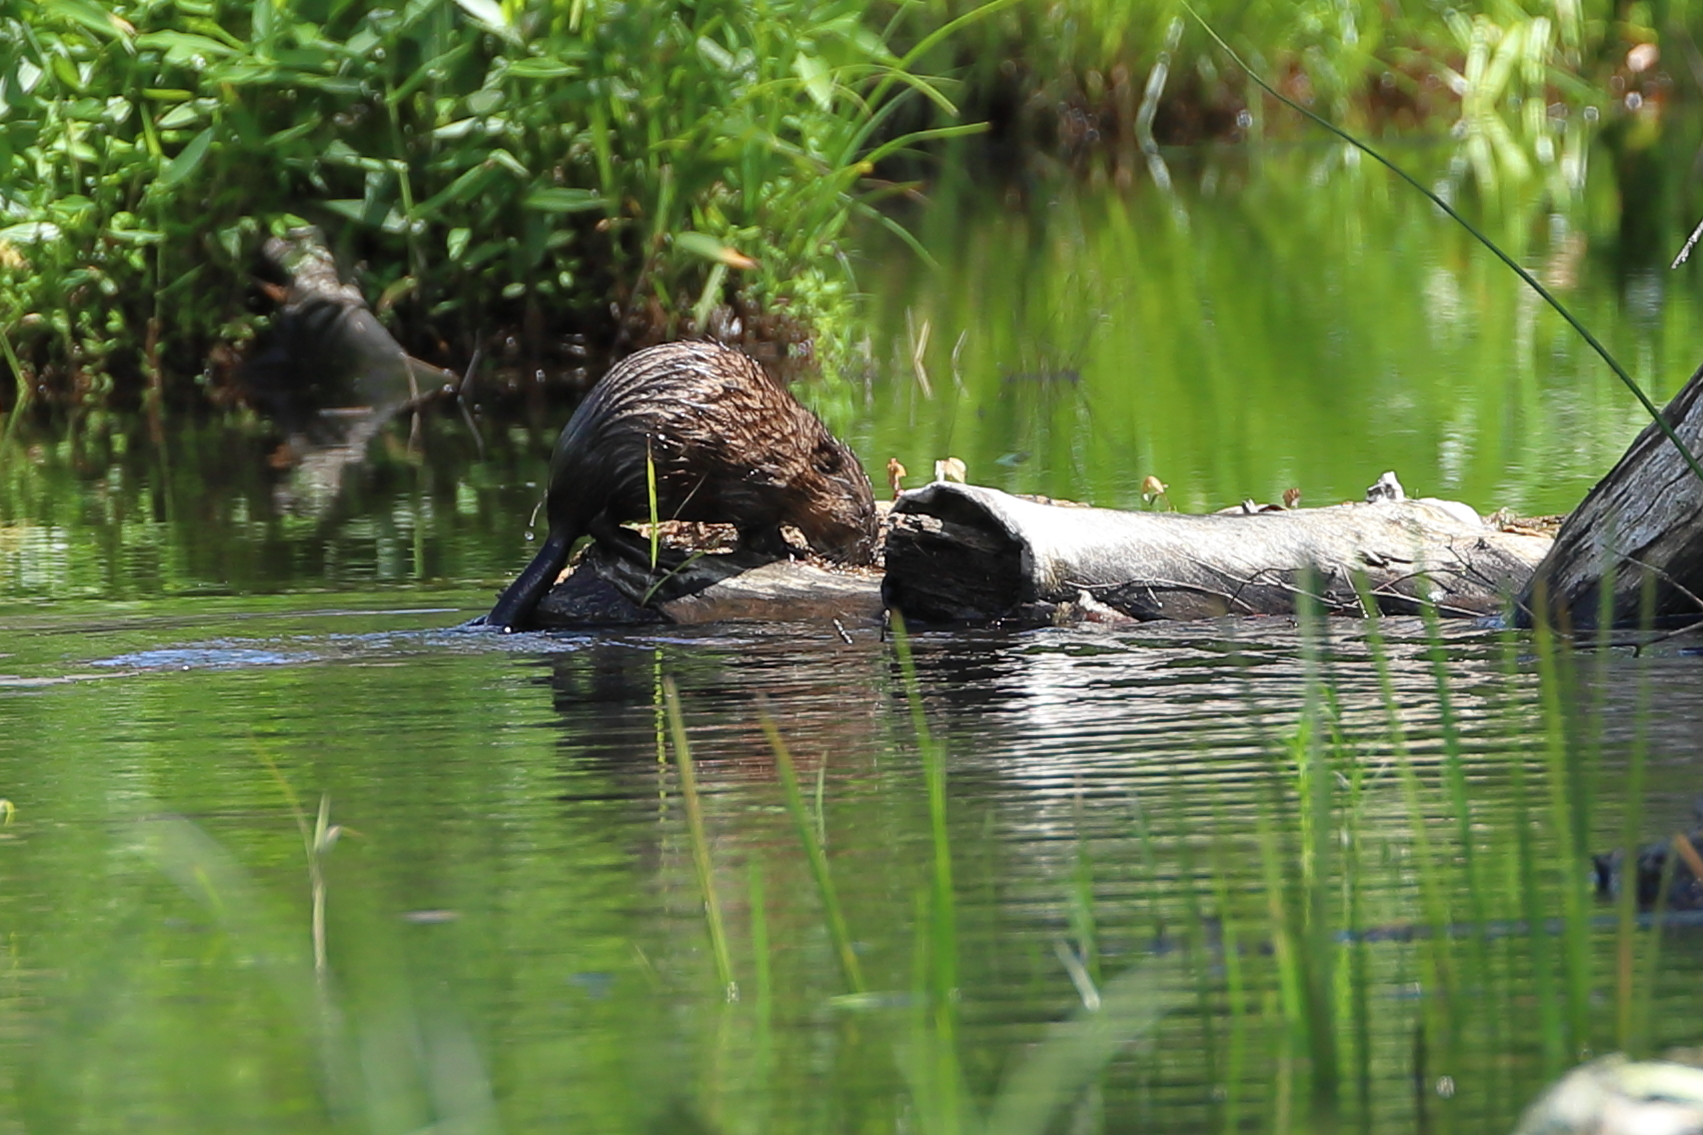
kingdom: Animalia
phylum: Chordata
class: Mammalia
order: Rodentia
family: Cricetidae
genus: Ondatra
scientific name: Ondatra zibethicus
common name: Muskrat
